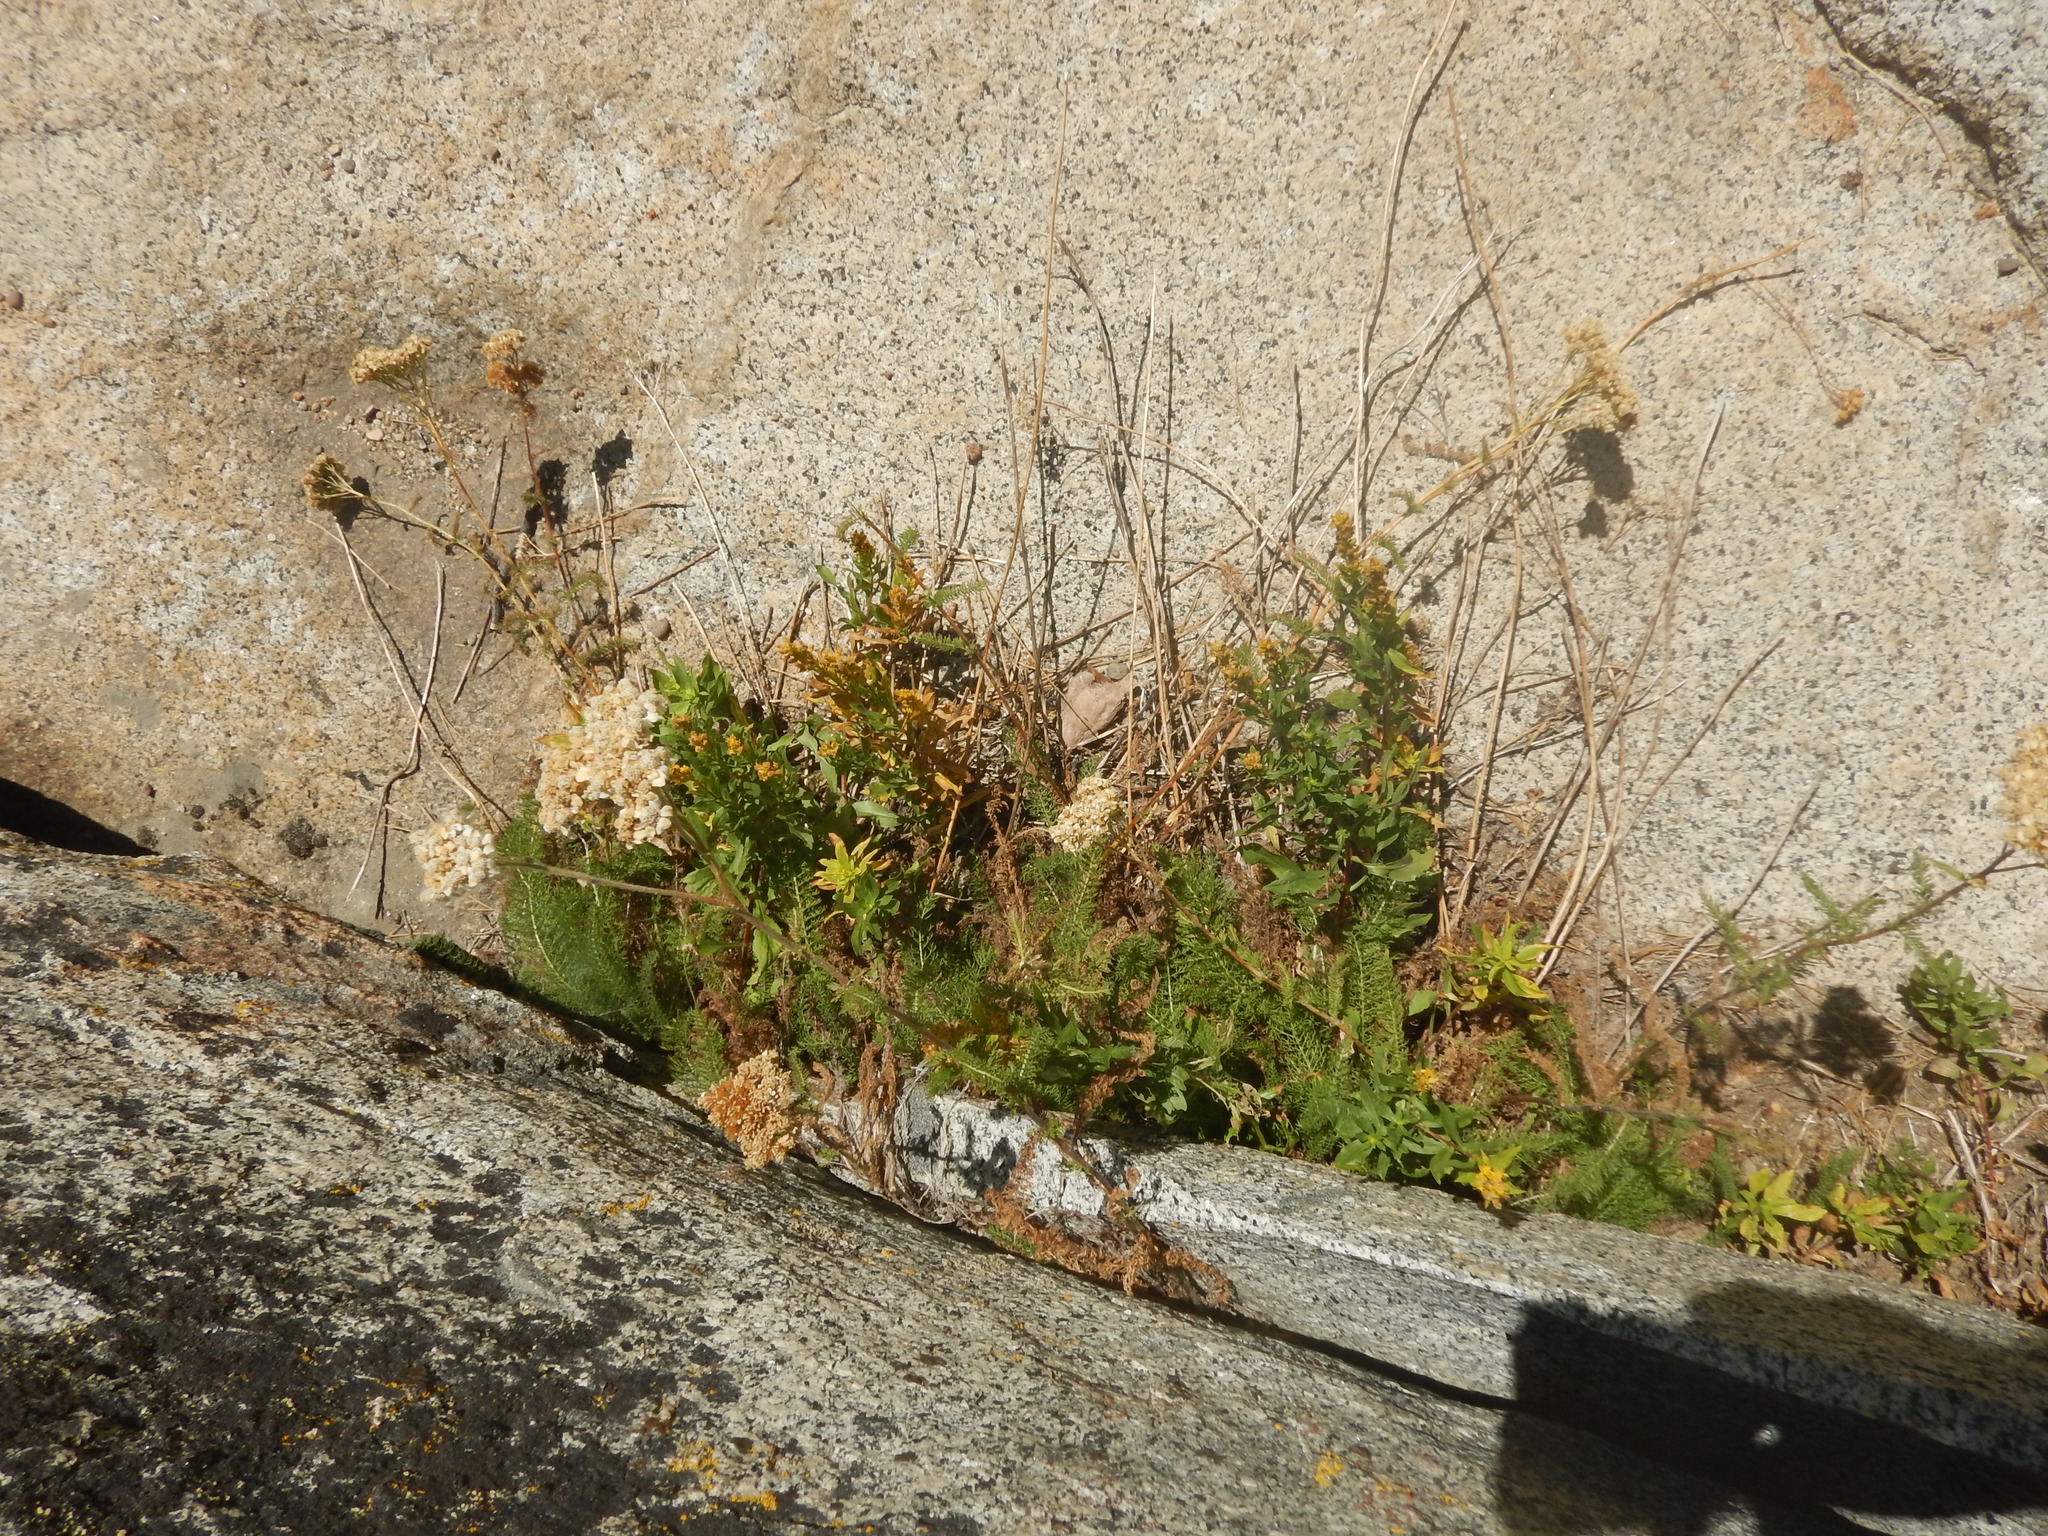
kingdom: Plantae
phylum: Tracheophyta
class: Magnoliopsida
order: Asterales
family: Asteraceae
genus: Achillea
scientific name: Achillea millefolium
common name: Yarrow
